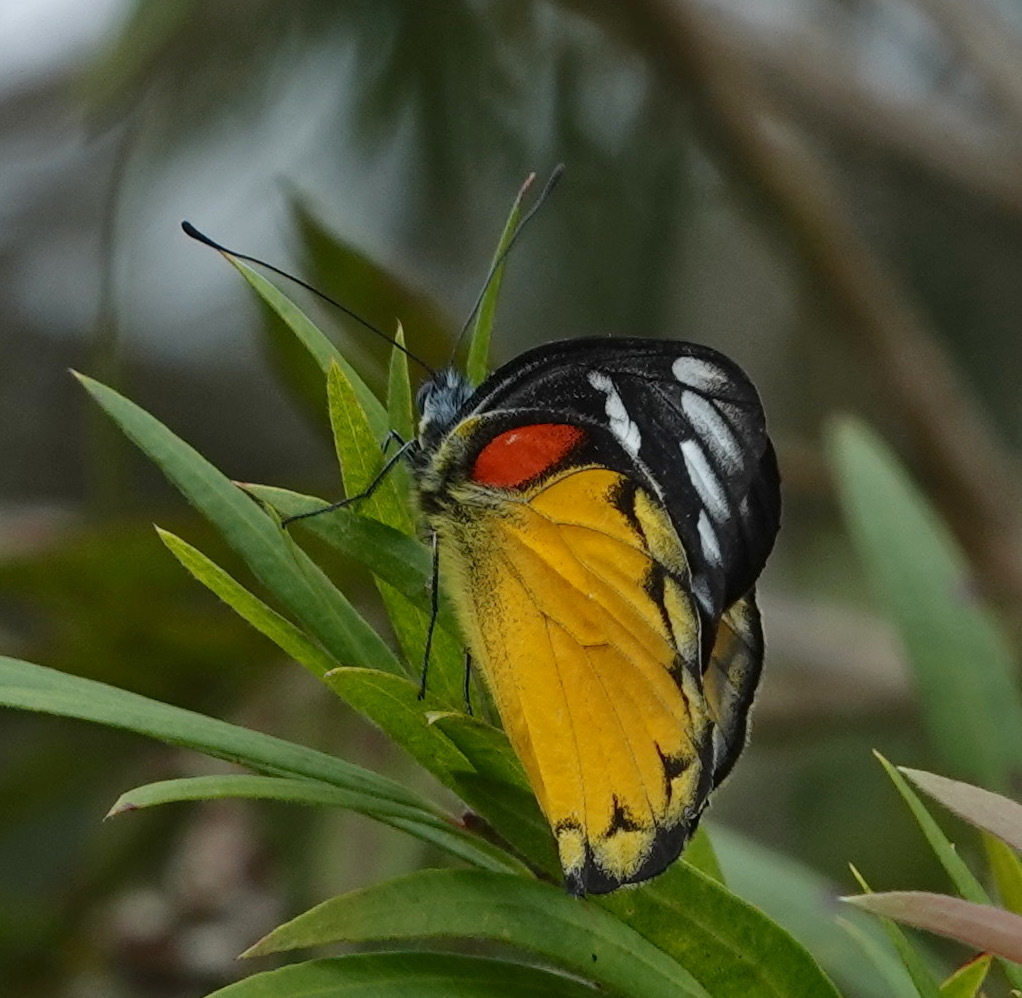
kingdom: Animalia
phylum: Arthropoda
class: Insecta
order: Lepidoptera
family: Pieridae
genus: Delias
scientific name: Delias descombesi
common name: Red-spot jezebel
